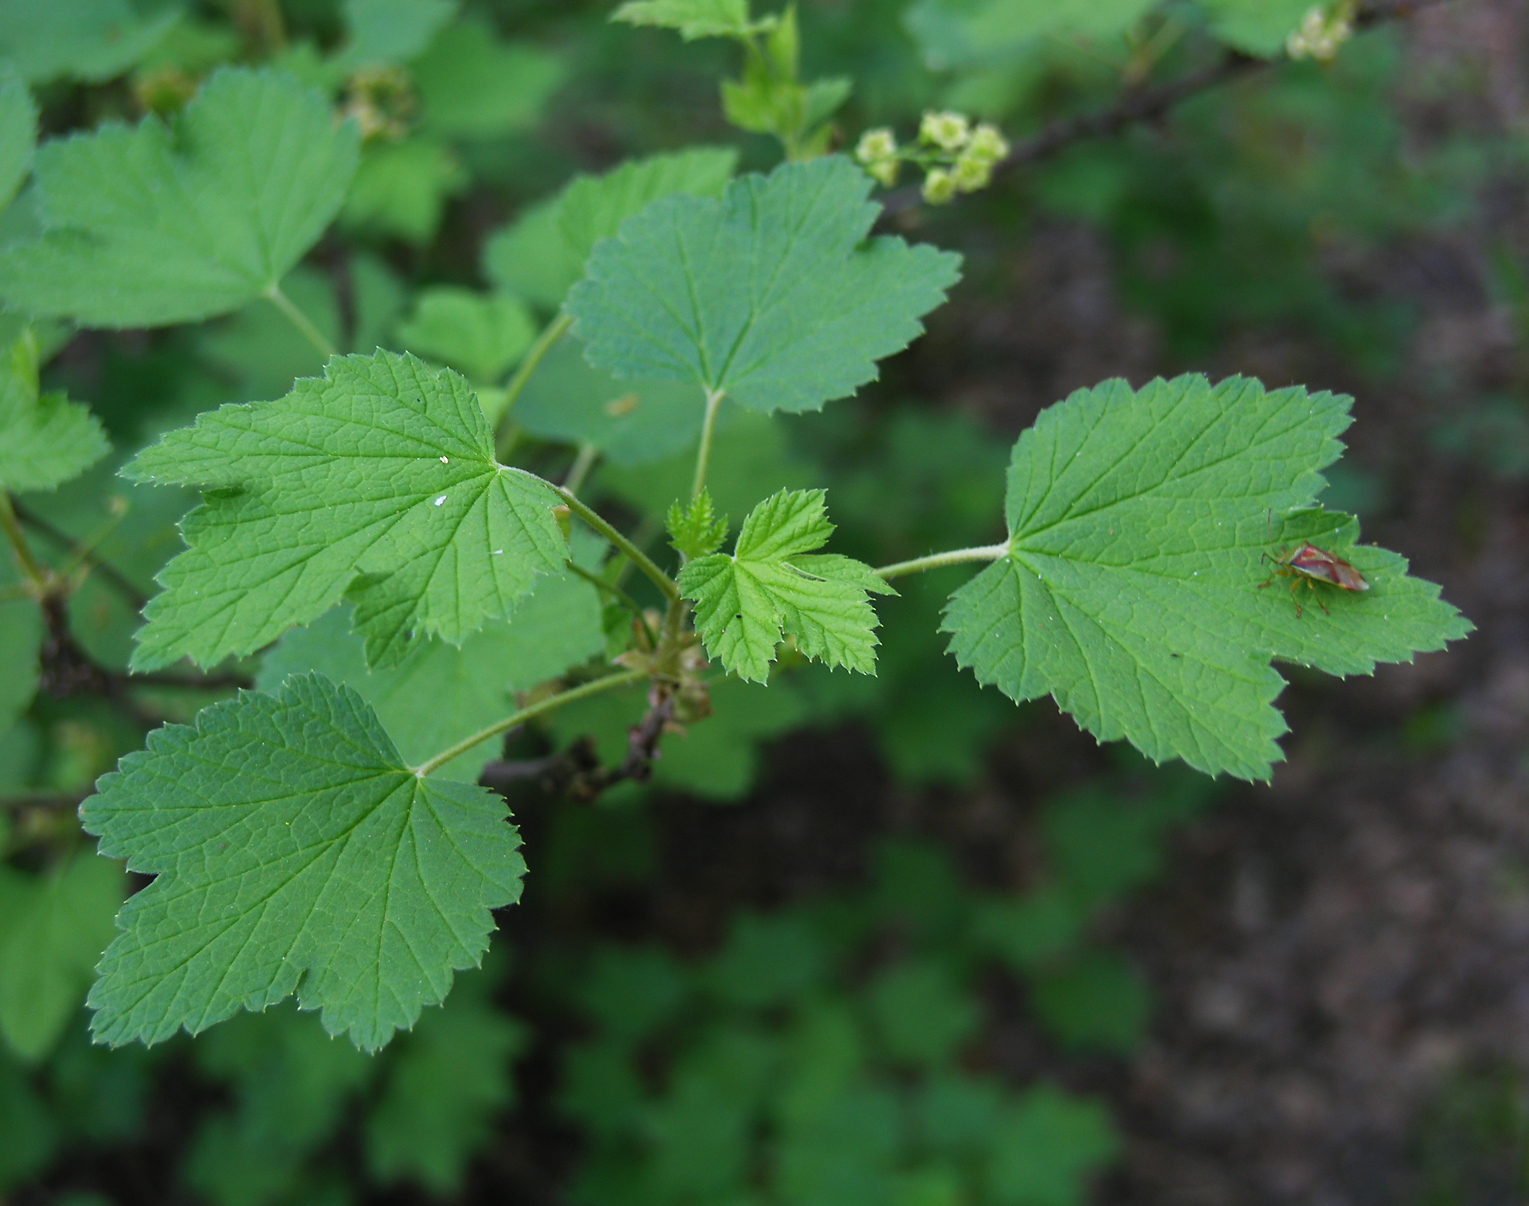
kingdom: Plantae
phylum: Tracheophyta
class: Magnoliopsida
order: Saxifragales
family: Grossulariaceae
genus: Ribes
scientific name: Ribes spicatum
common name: Downy currant
